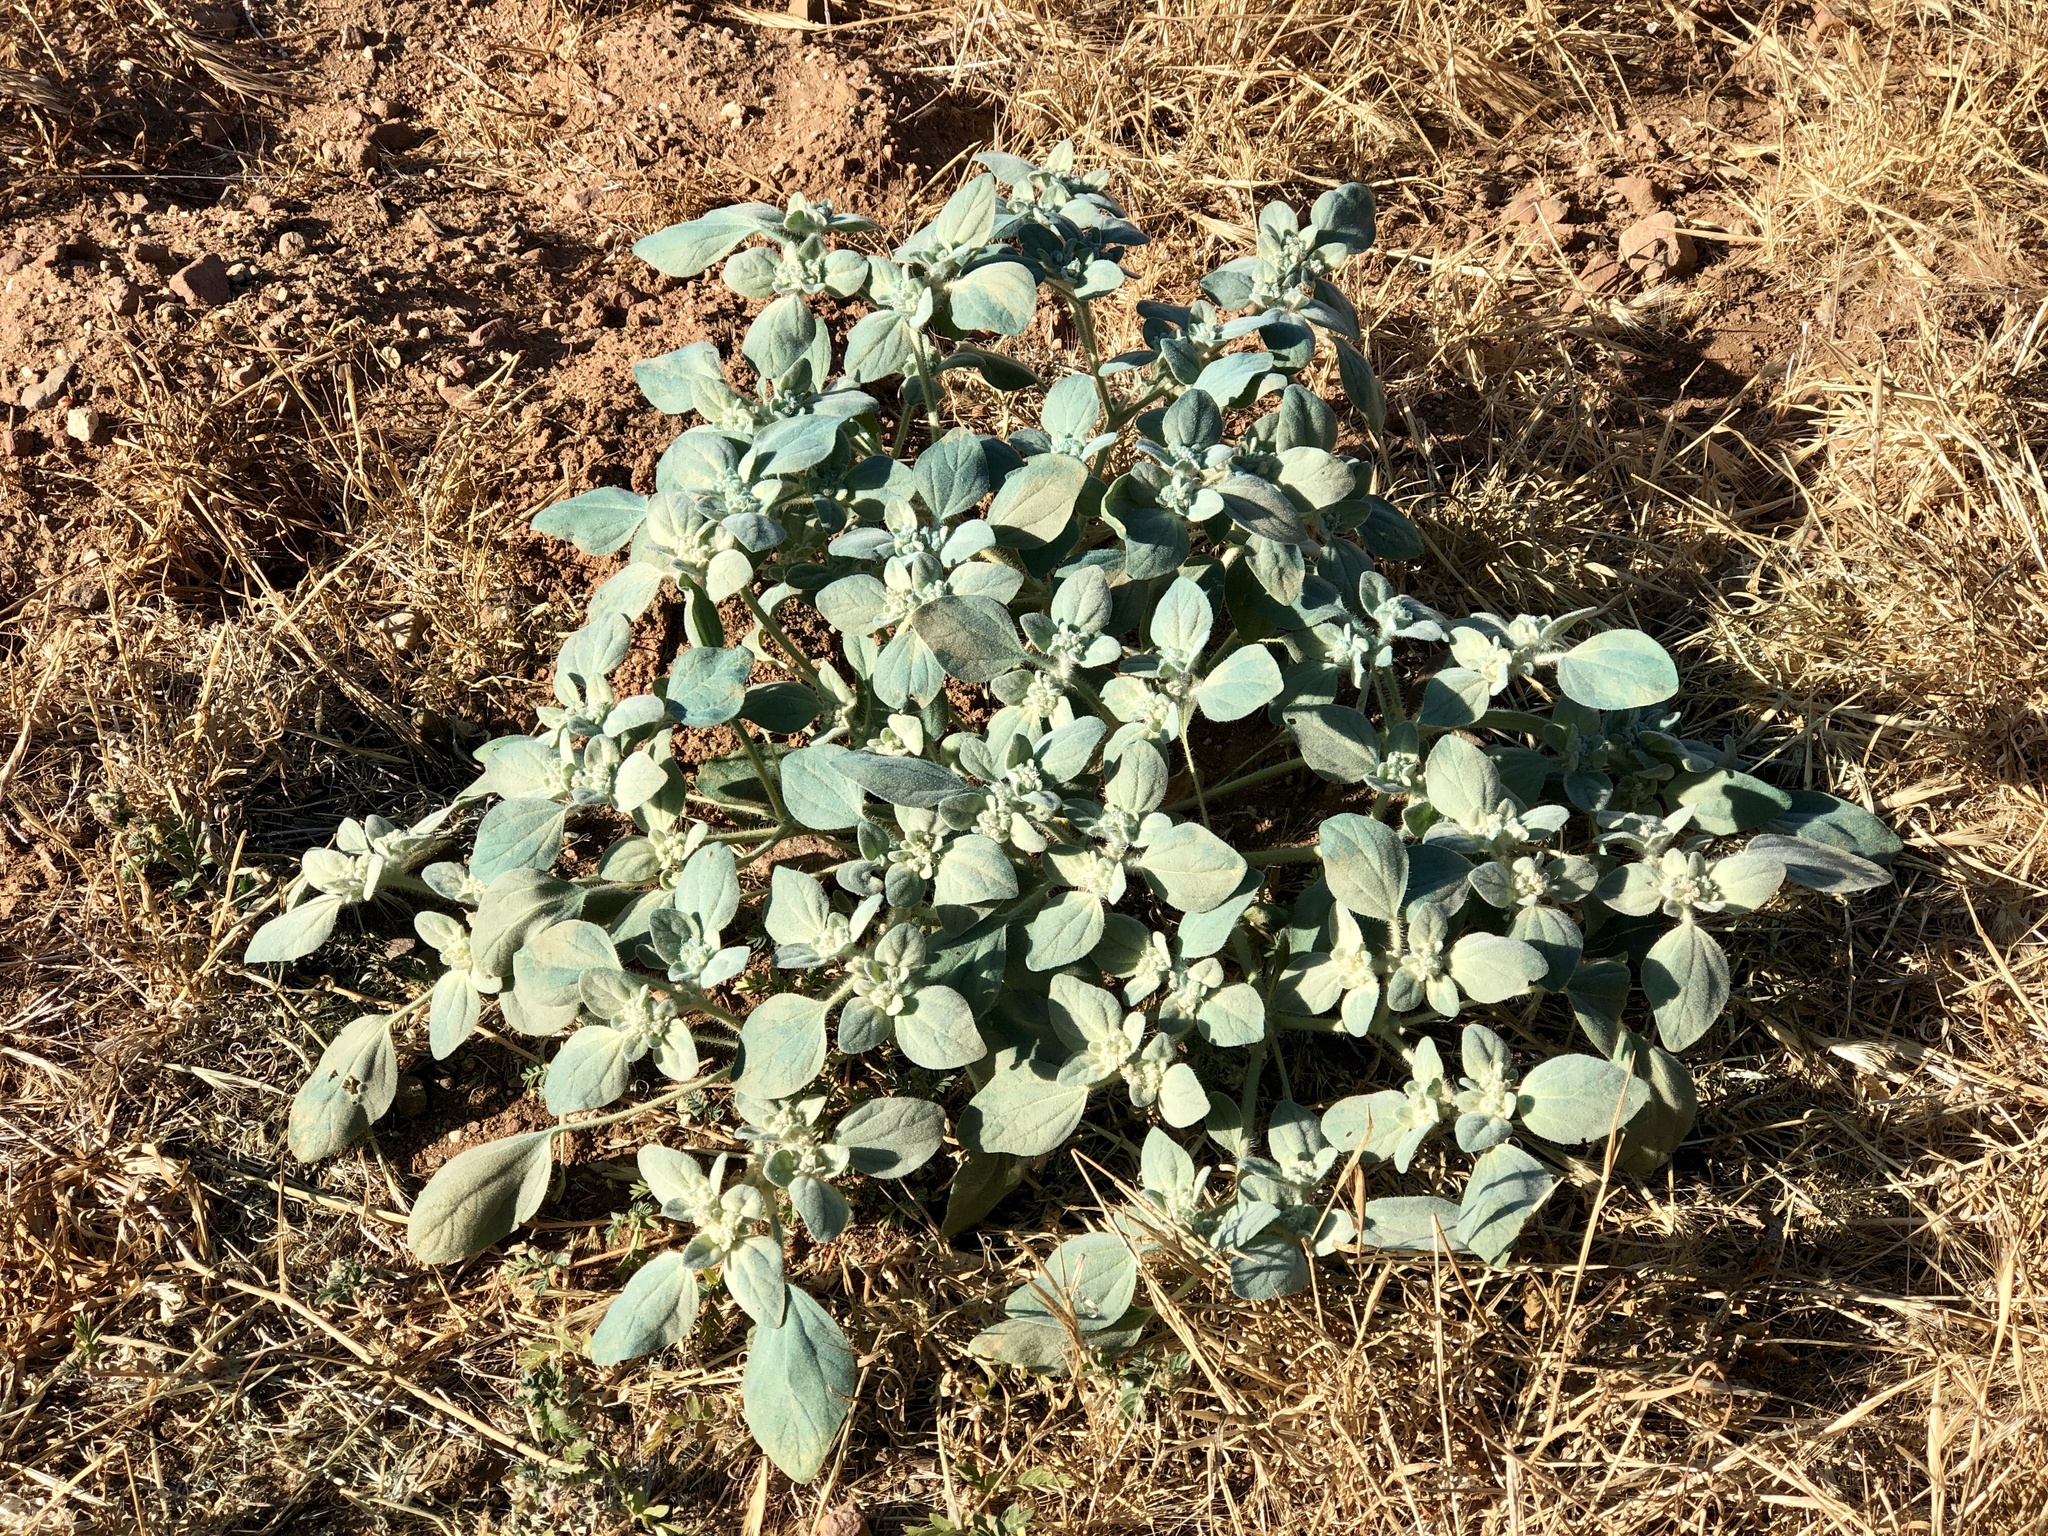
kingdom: Plantae
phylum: Tracheophyta
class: Magnoliopsida
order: Malpighiales
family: Euphorbiaceae
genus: Croton
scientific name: Croton setiger
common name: Dove weed
